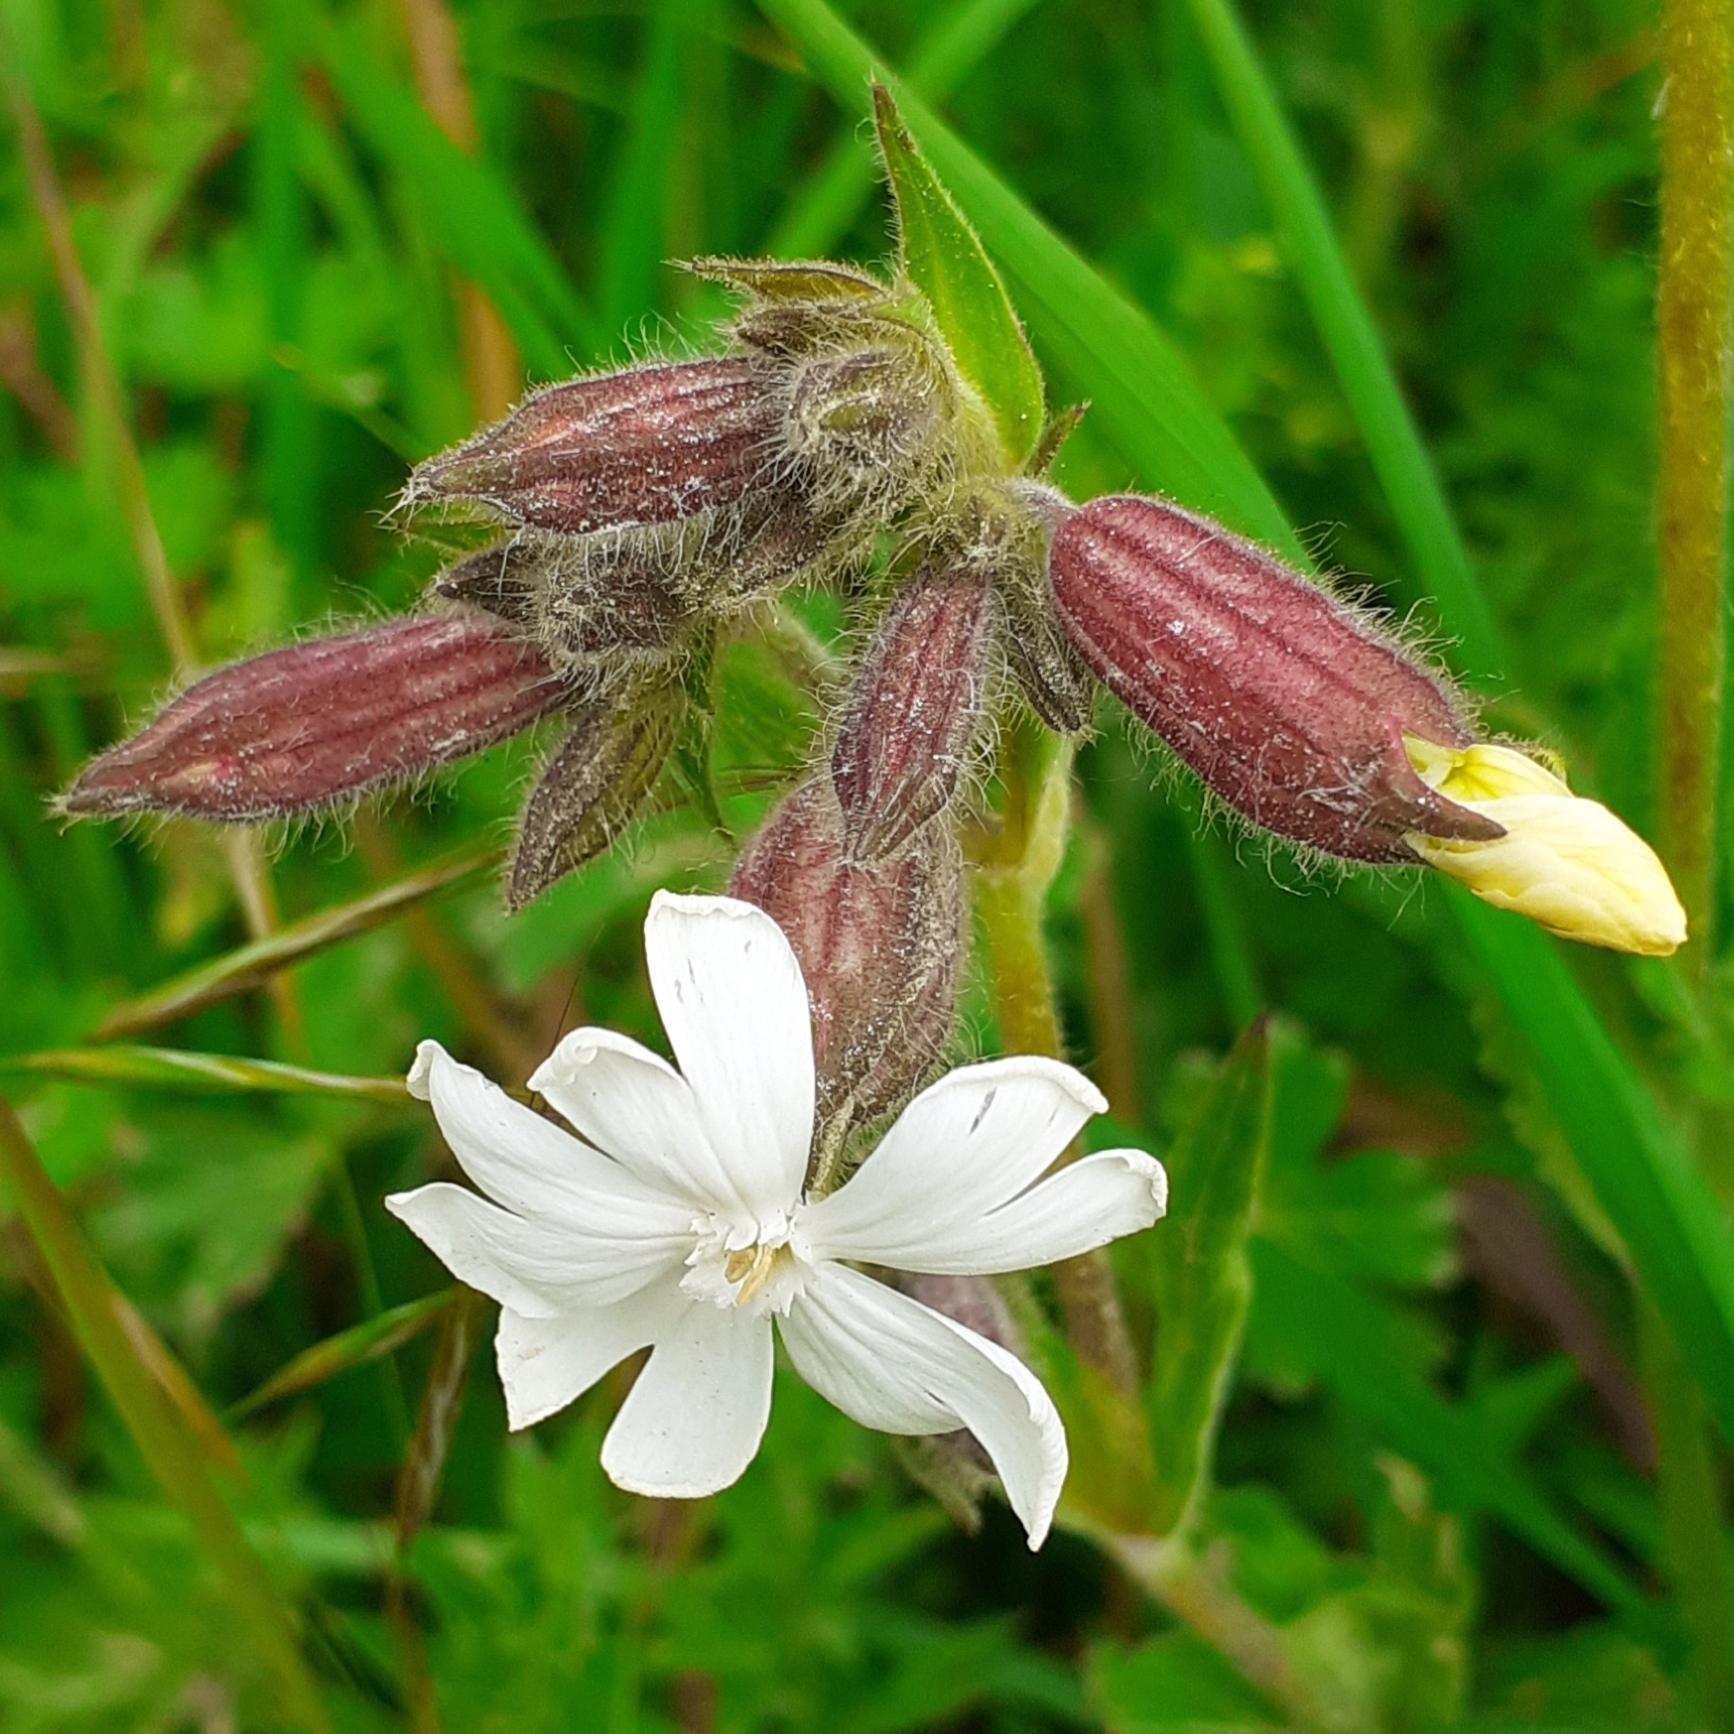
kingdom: Plantae
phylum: Tracheophyta
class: Magnoliopsida
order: Caryophyllales
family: Caryophyllaceae
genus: Silene
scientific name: Silene latifolia
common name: White campion
